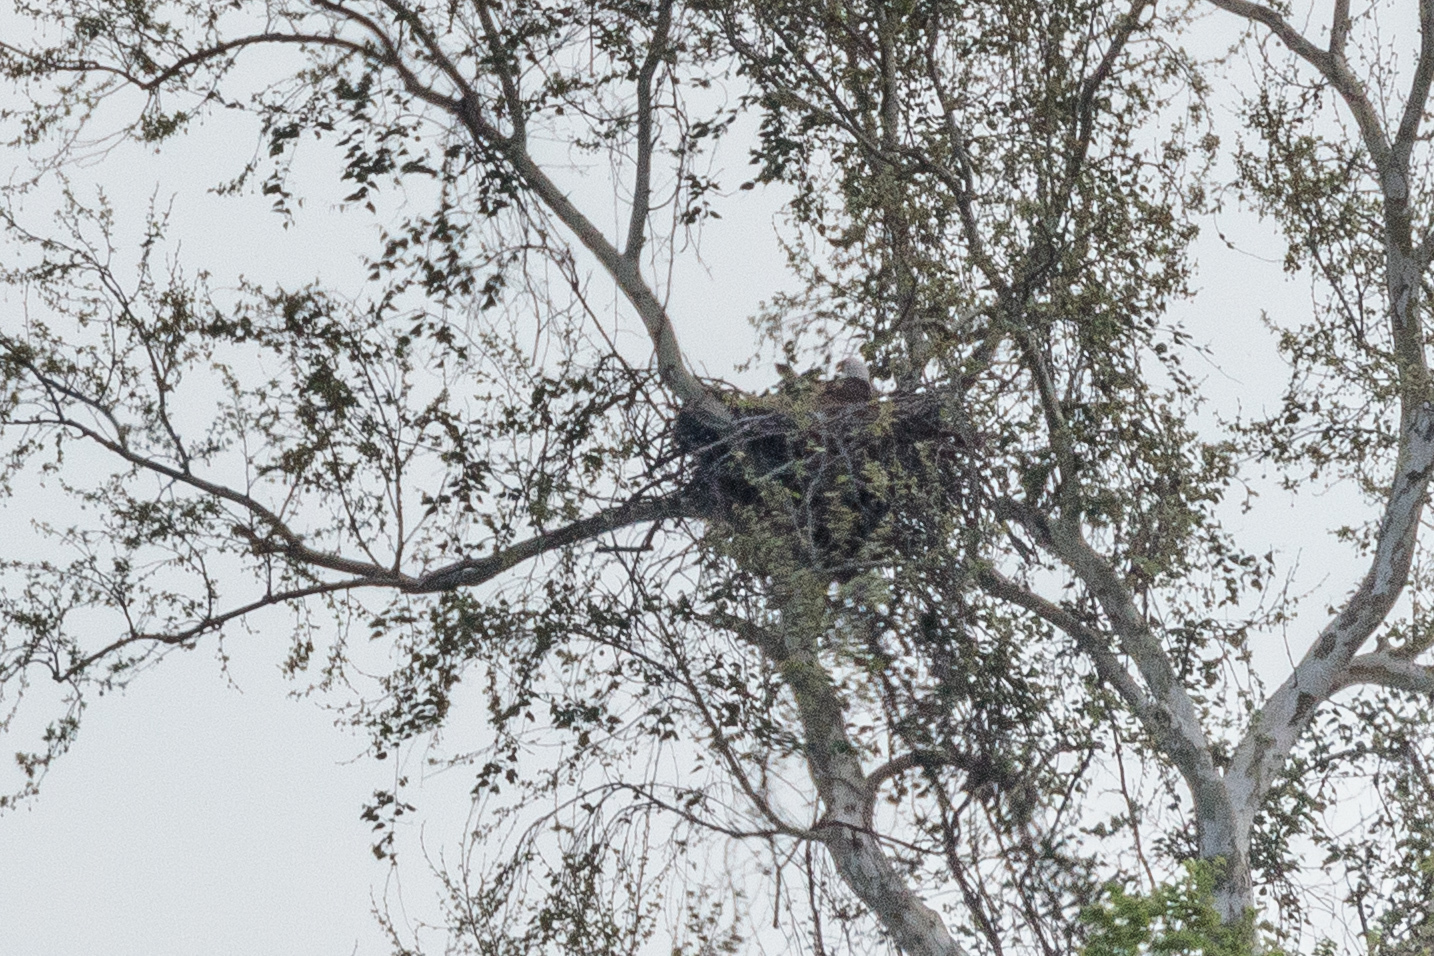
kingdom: Animalia
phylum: Chordata
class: Aves
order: Accipitriformes
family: Accipitridae
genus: Haliaeetus
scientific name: Haliaeetus leucocephalus
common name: Bald eagle
